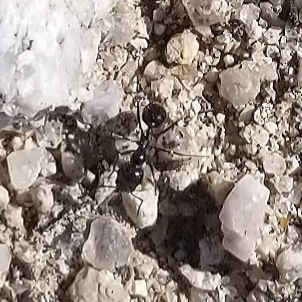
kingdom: Animalia
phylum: Arthropoda
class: Insecta
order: Hymenoptera
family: Formicidae
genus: Messor
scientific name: Messor pergandei
